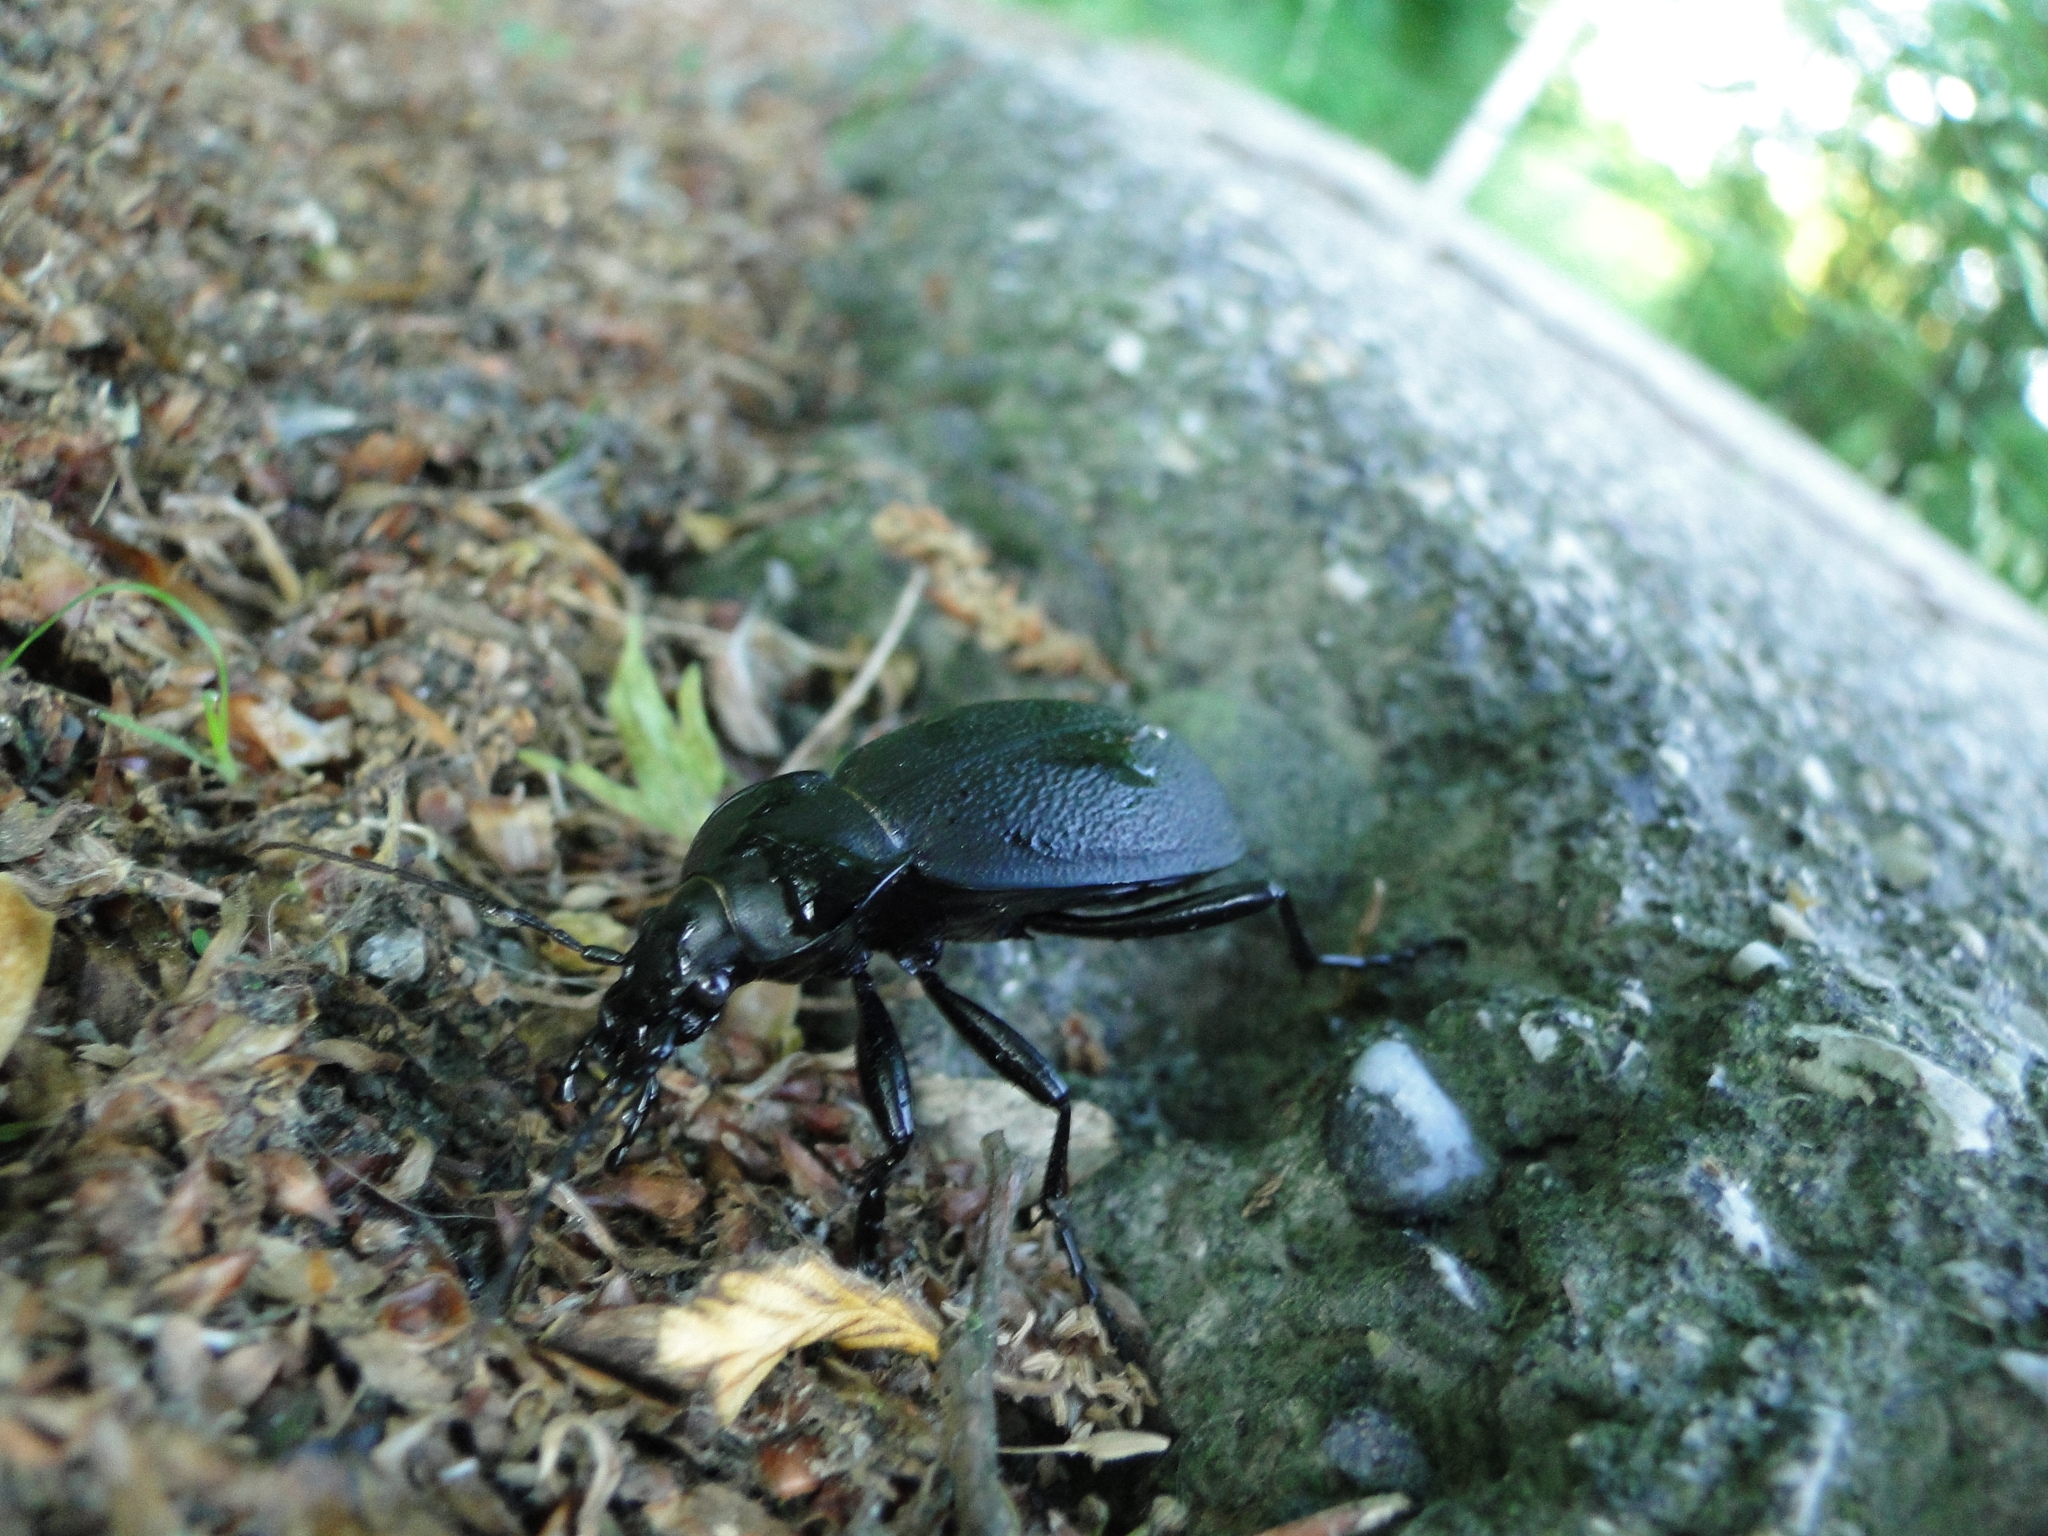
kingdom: Animalia
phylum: Arthropoda
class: Insecta
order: Coleoptera
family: Carabidae
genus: Carabus
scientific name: Carabus coriaceus
